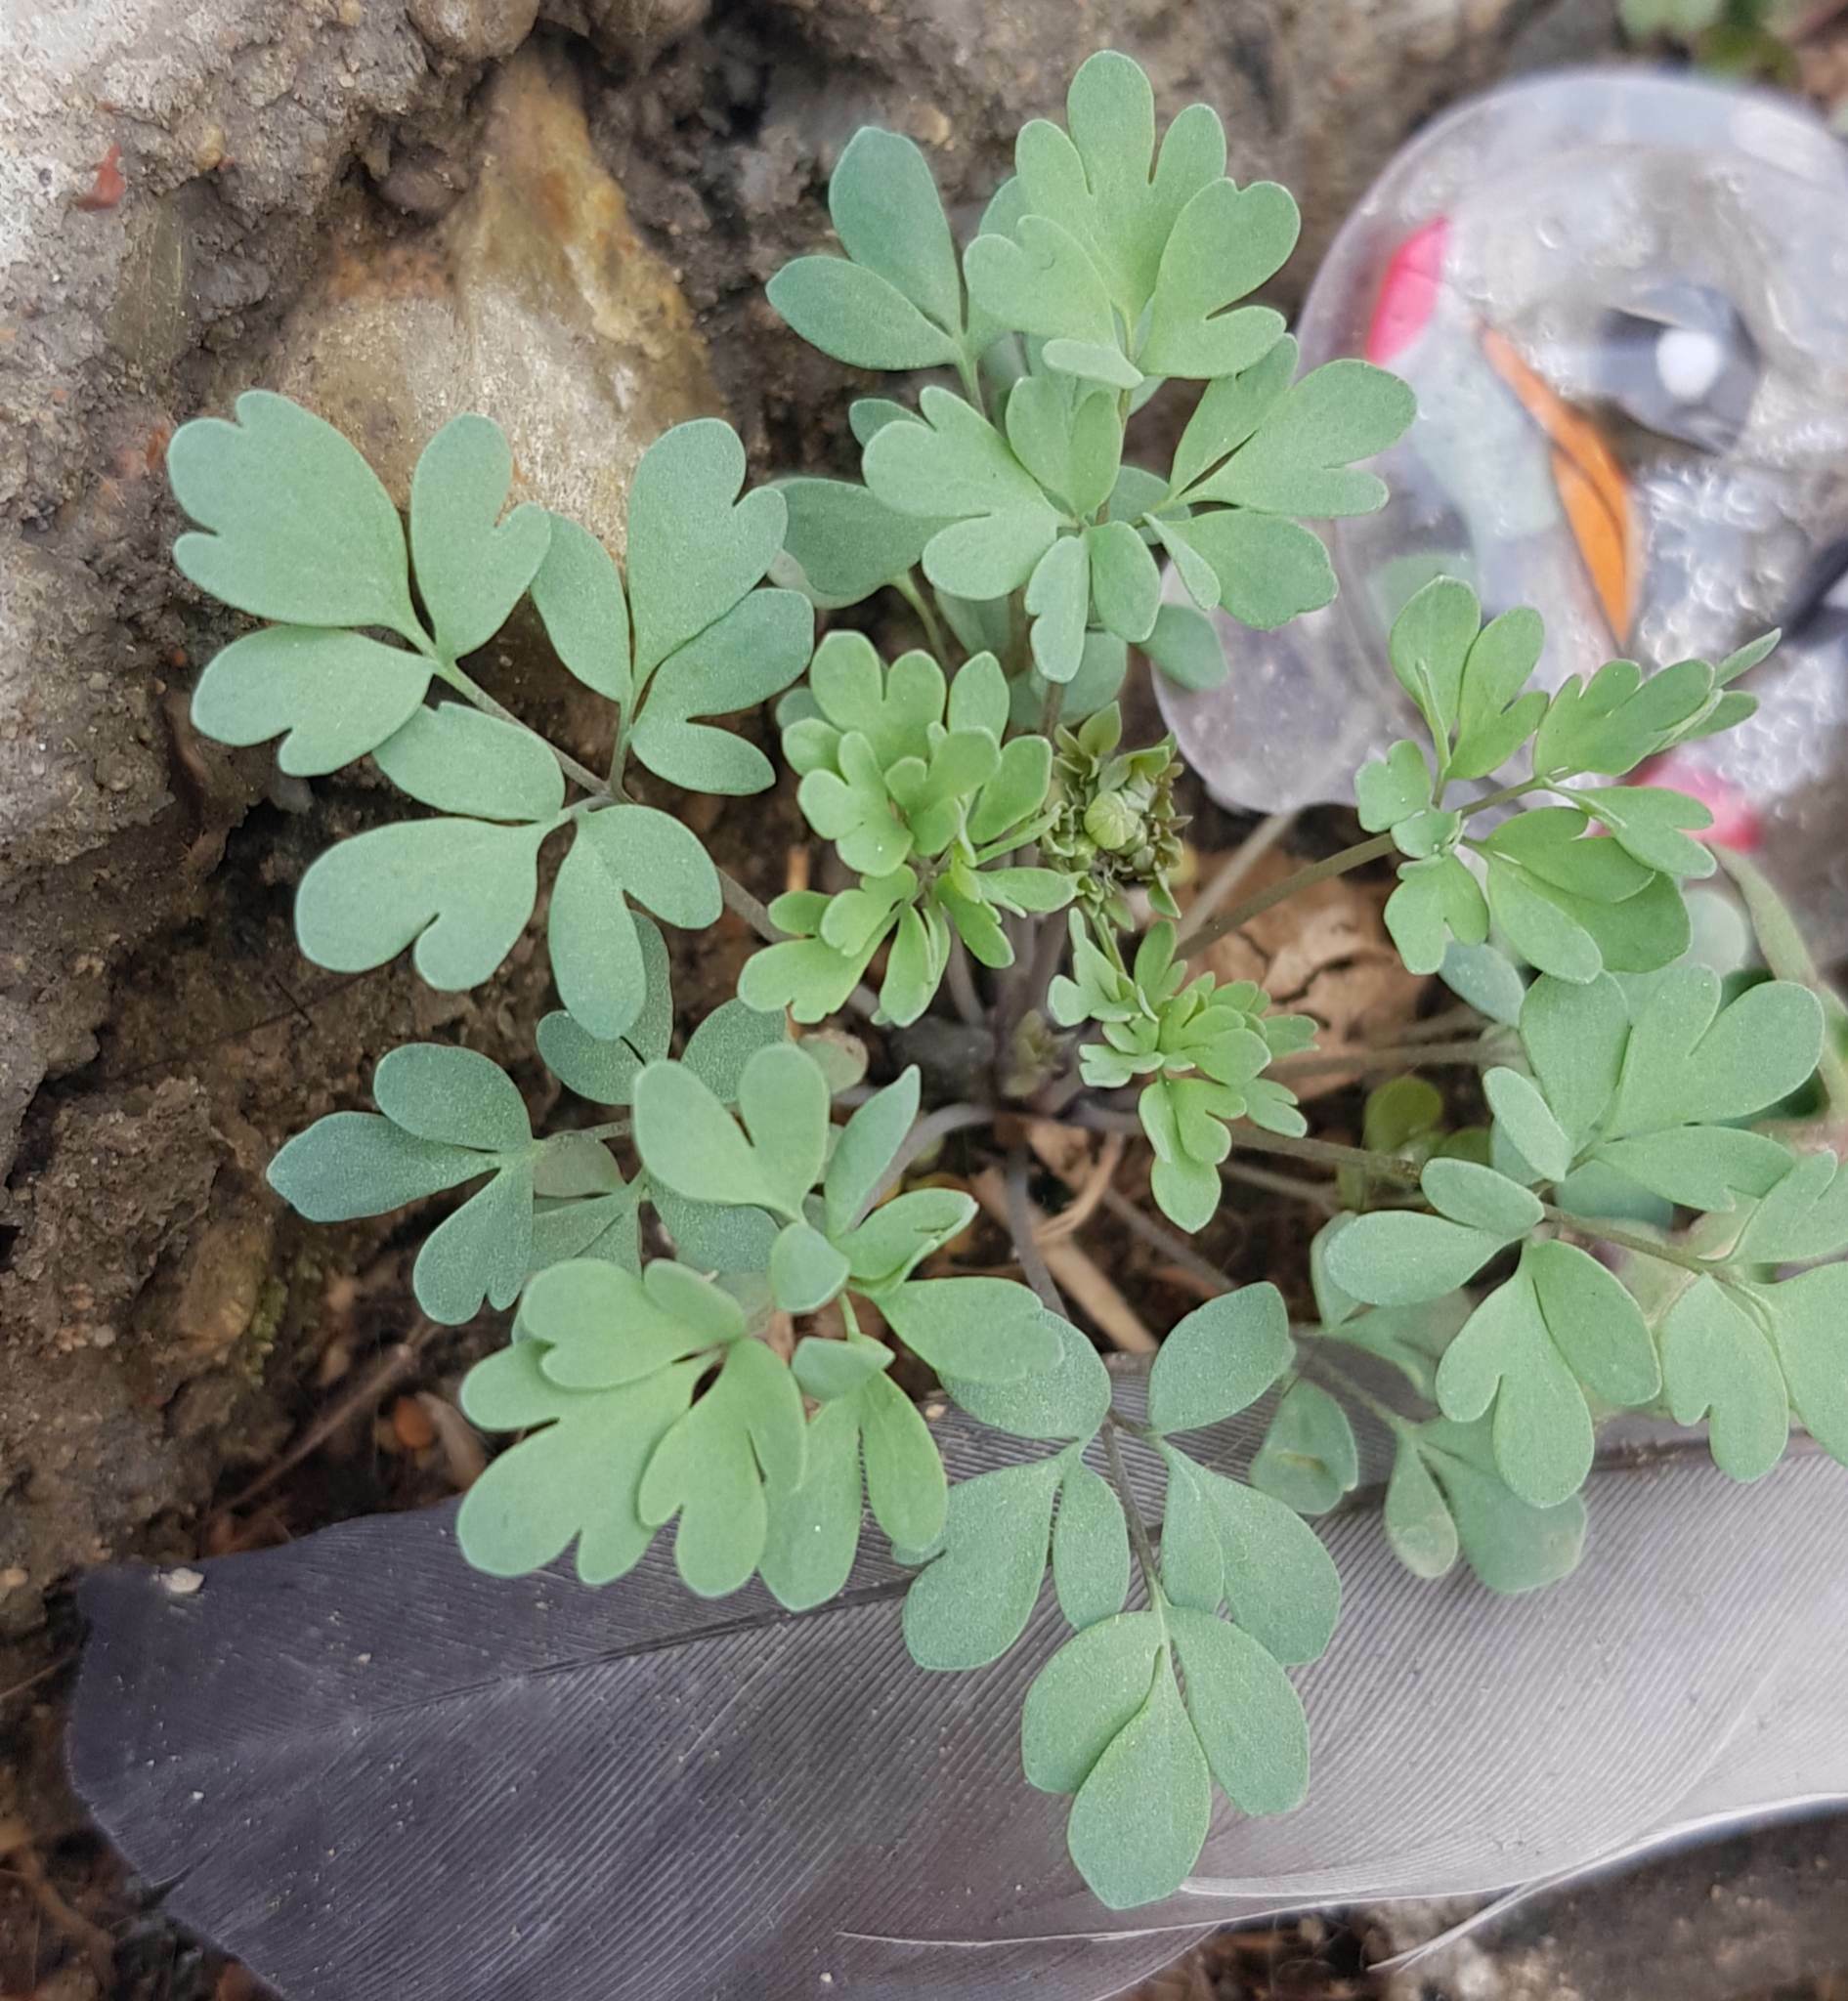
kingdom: Plantae
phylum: Tracheophyta
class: Magnoliopsida
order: Ranunculales
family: Ranunculaceae
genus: Leptopyrum
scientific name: Leptopyrum fumarioides
